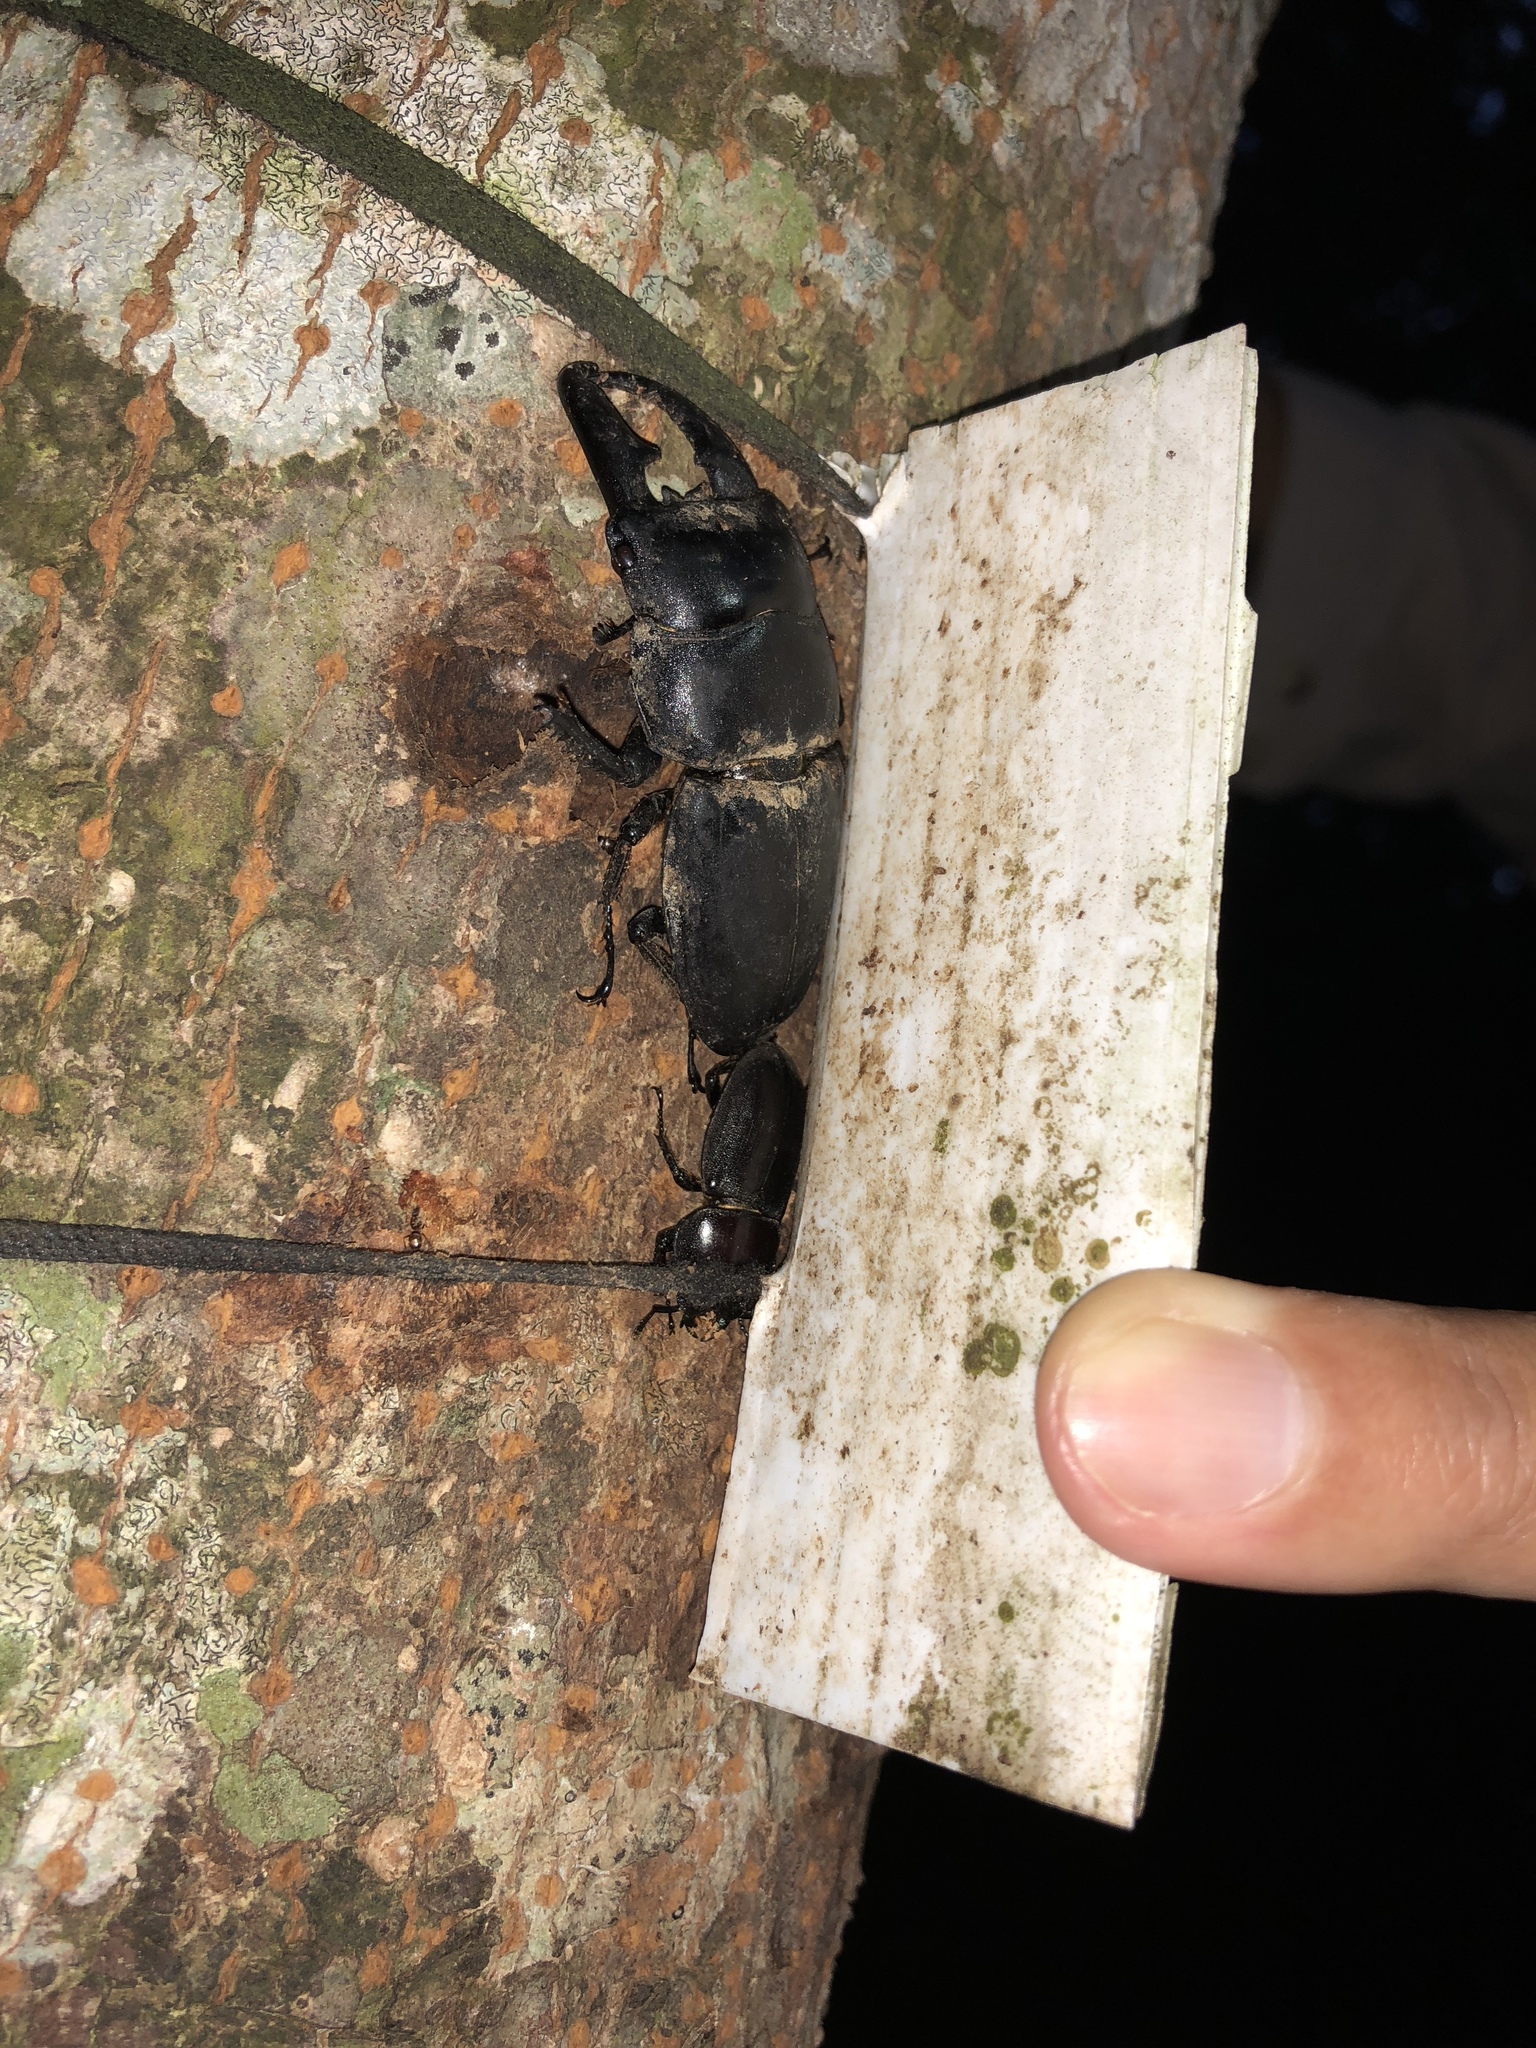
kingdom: Animalia
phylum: Arthropoda
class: Insecta
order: Coleoptera
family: Lucanidae
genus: Serrognathus
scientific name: Serrognathus titanus
